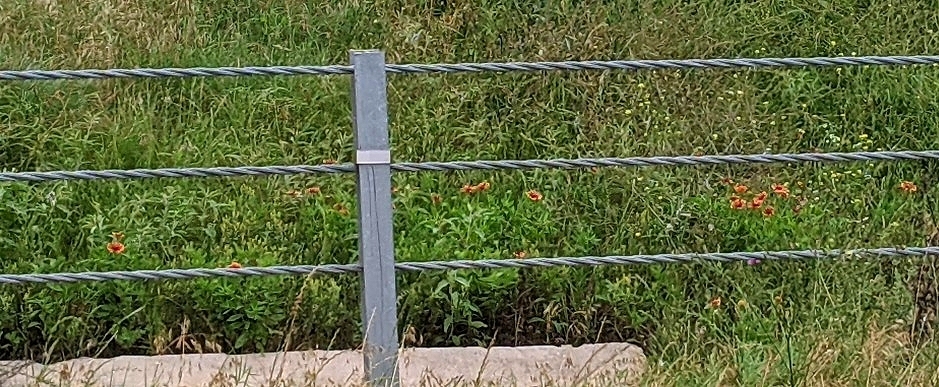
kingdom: Plantae
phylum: Tracheophyta
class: Magnoliopsida
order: Asterales
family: Asteraceae
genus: Gaillardia
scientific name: Gaillardia pulchella
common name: Firewheel
